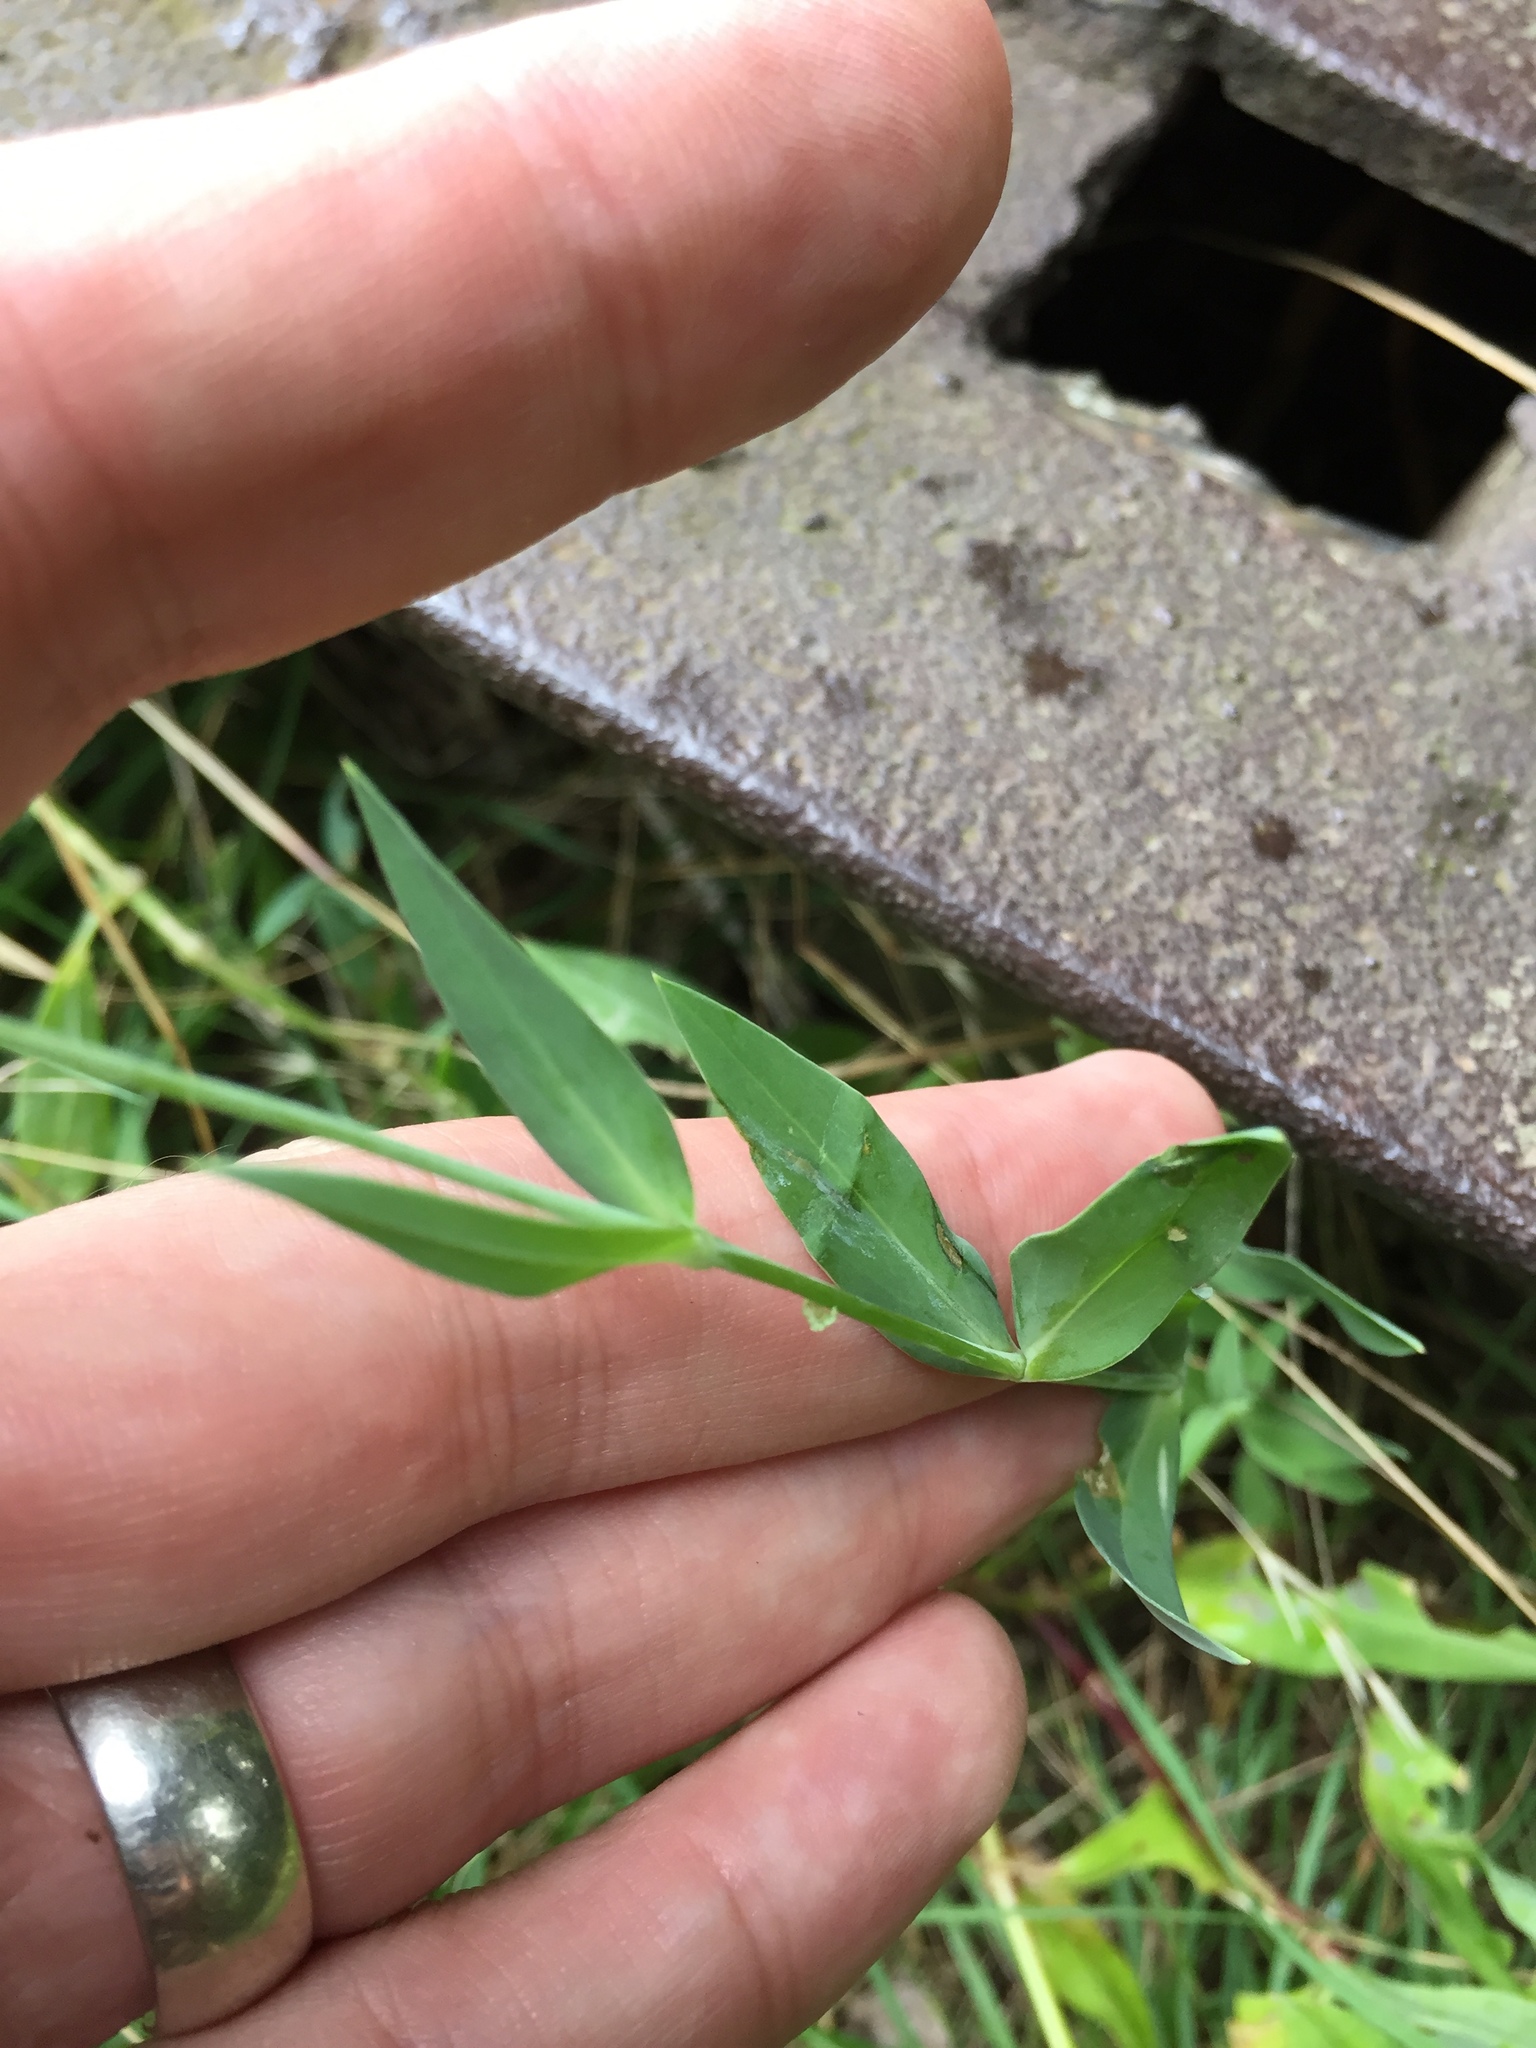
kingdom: Plantae
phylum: Tracheophyta
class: Magnoliopsida
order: Caryophyllales
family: Caryophyllaceae
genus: Silene
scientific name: Silene vulgaris
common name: Bladder campion
